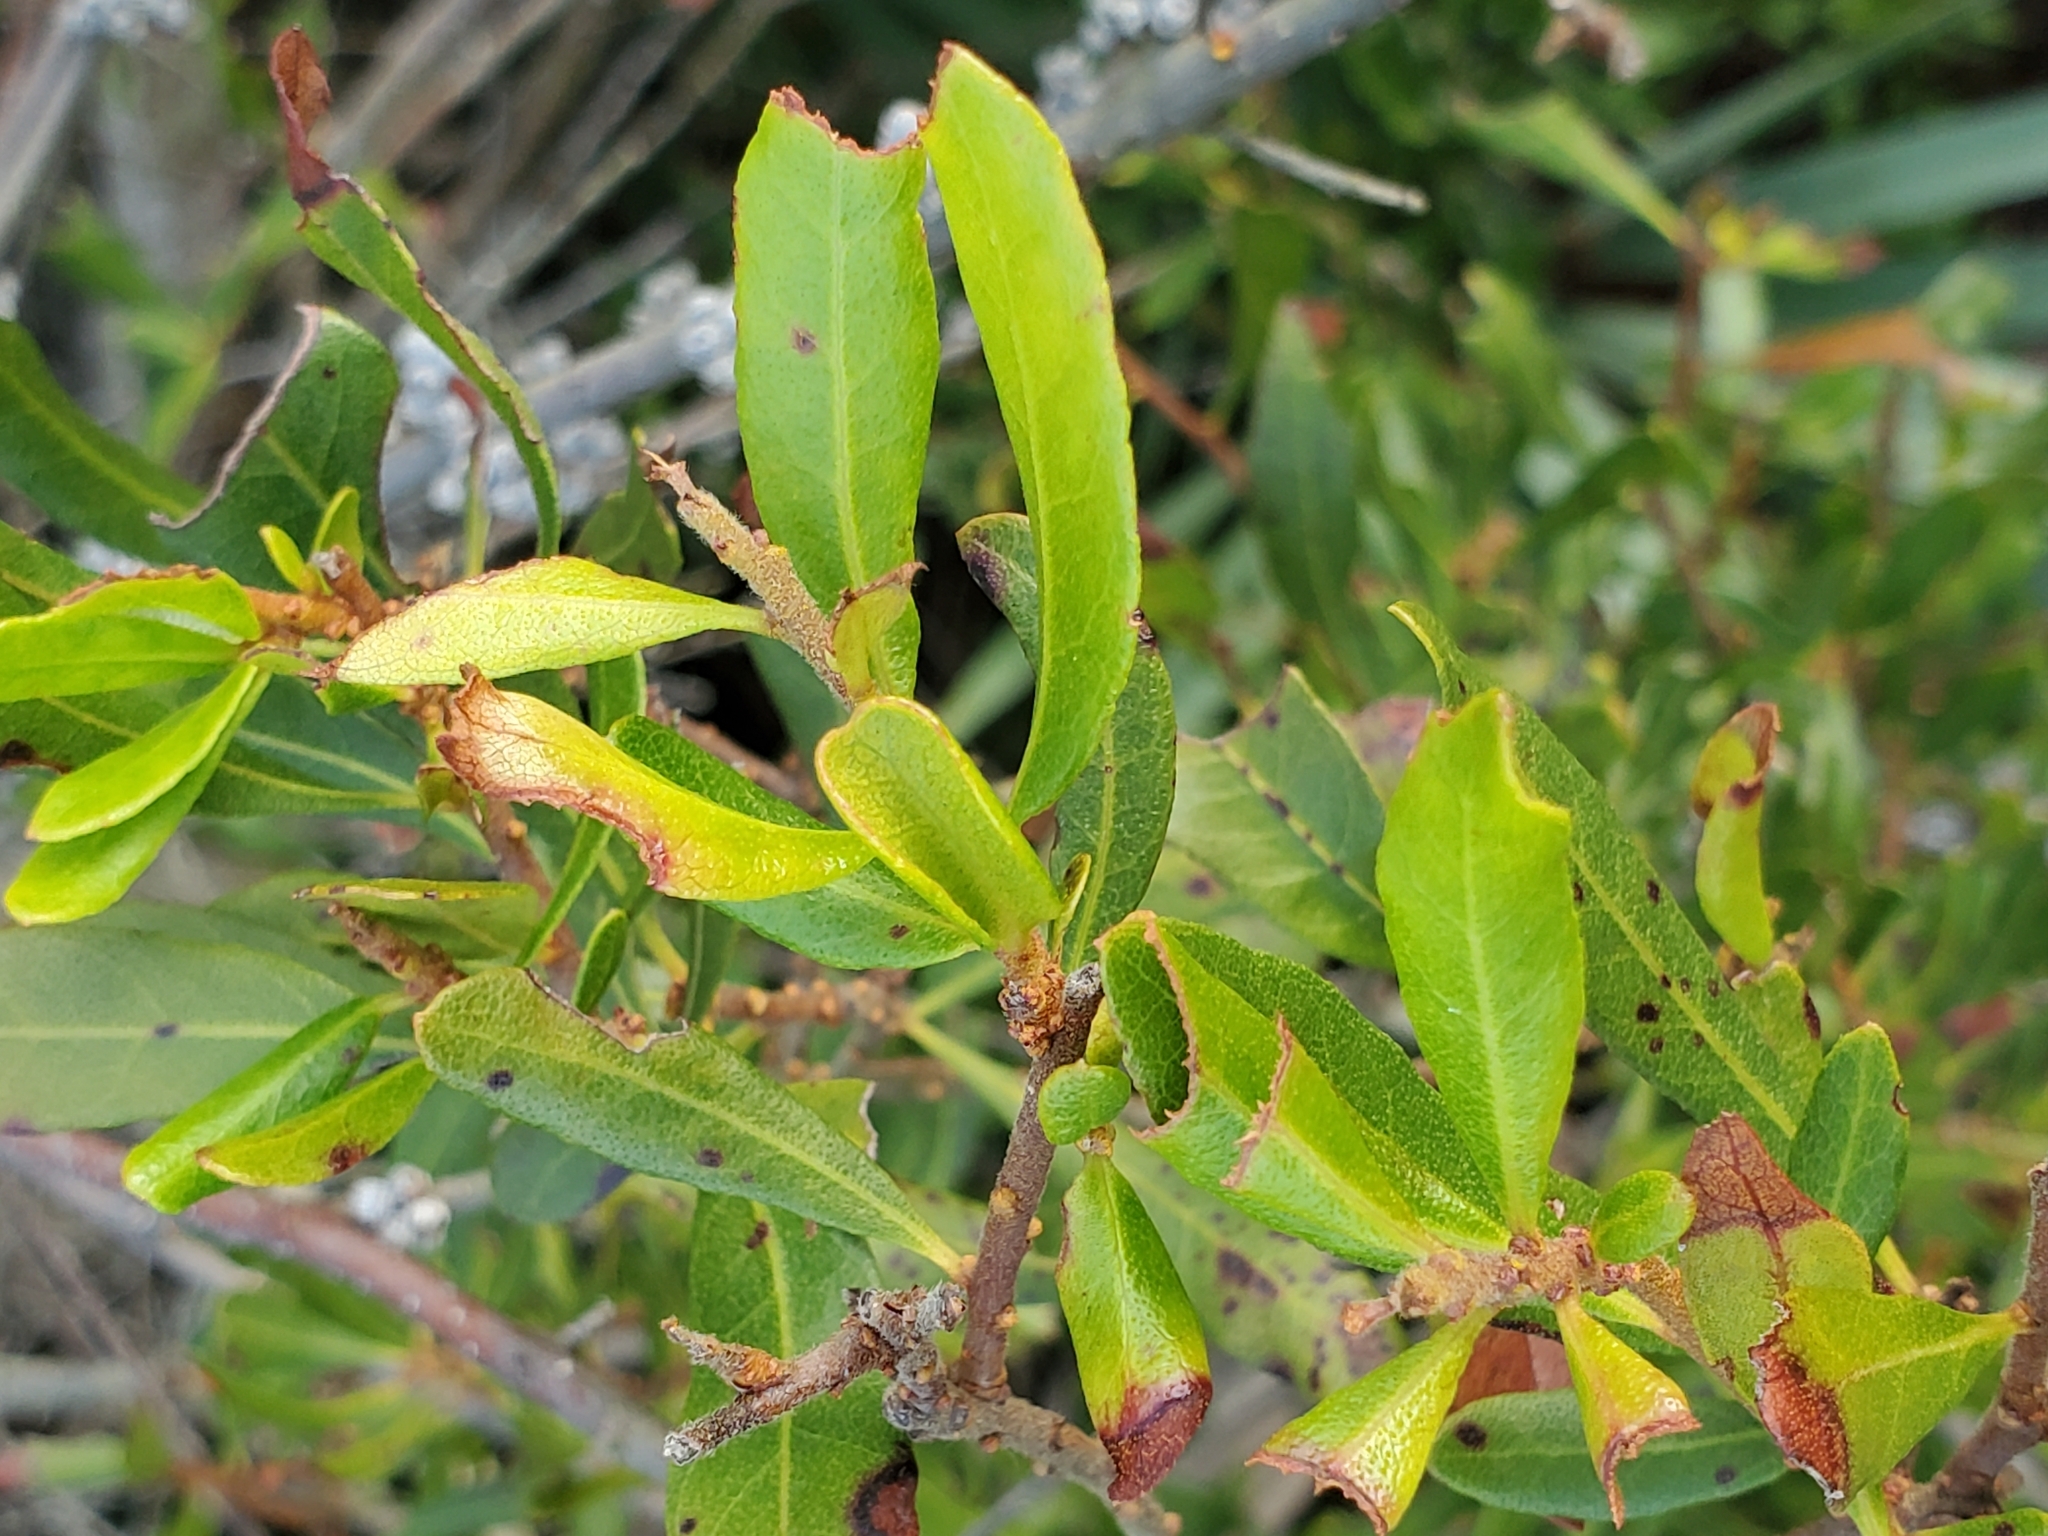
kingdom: Plantae
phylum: Tracheophyta
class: Magnoliopsida
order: Fagales
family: Myricaceae
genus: Morella
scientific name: Morella cerifera
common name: Wax myrtle
